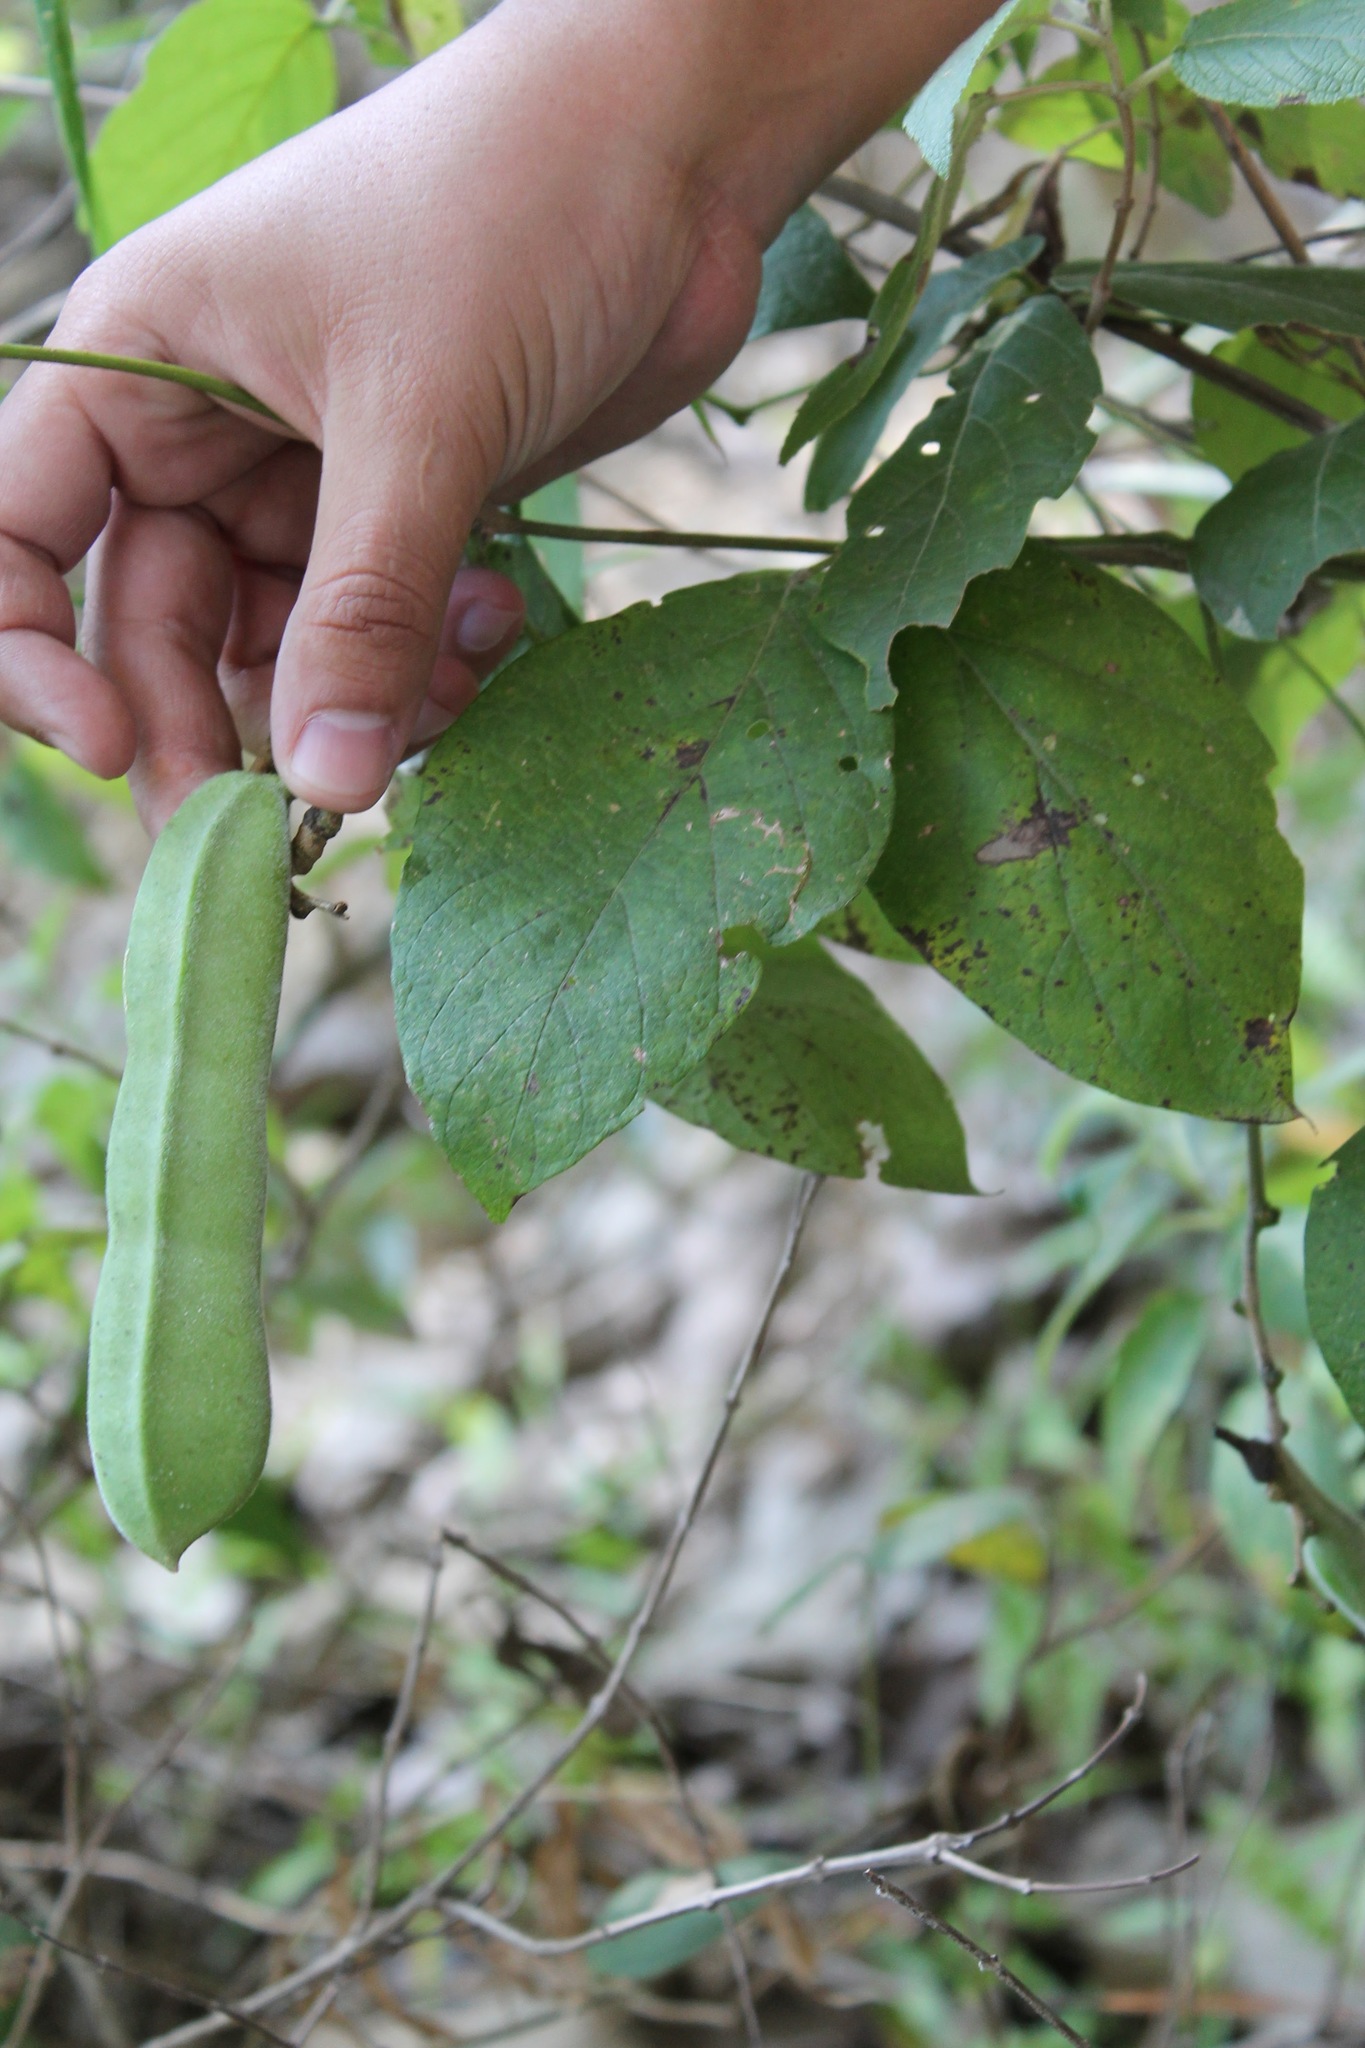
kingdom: Plantae
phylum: Tracheophyta
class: Magnoliopsida
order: Fabales
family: Fabaceae
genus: Canavalia
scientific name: Canavalia villosa
